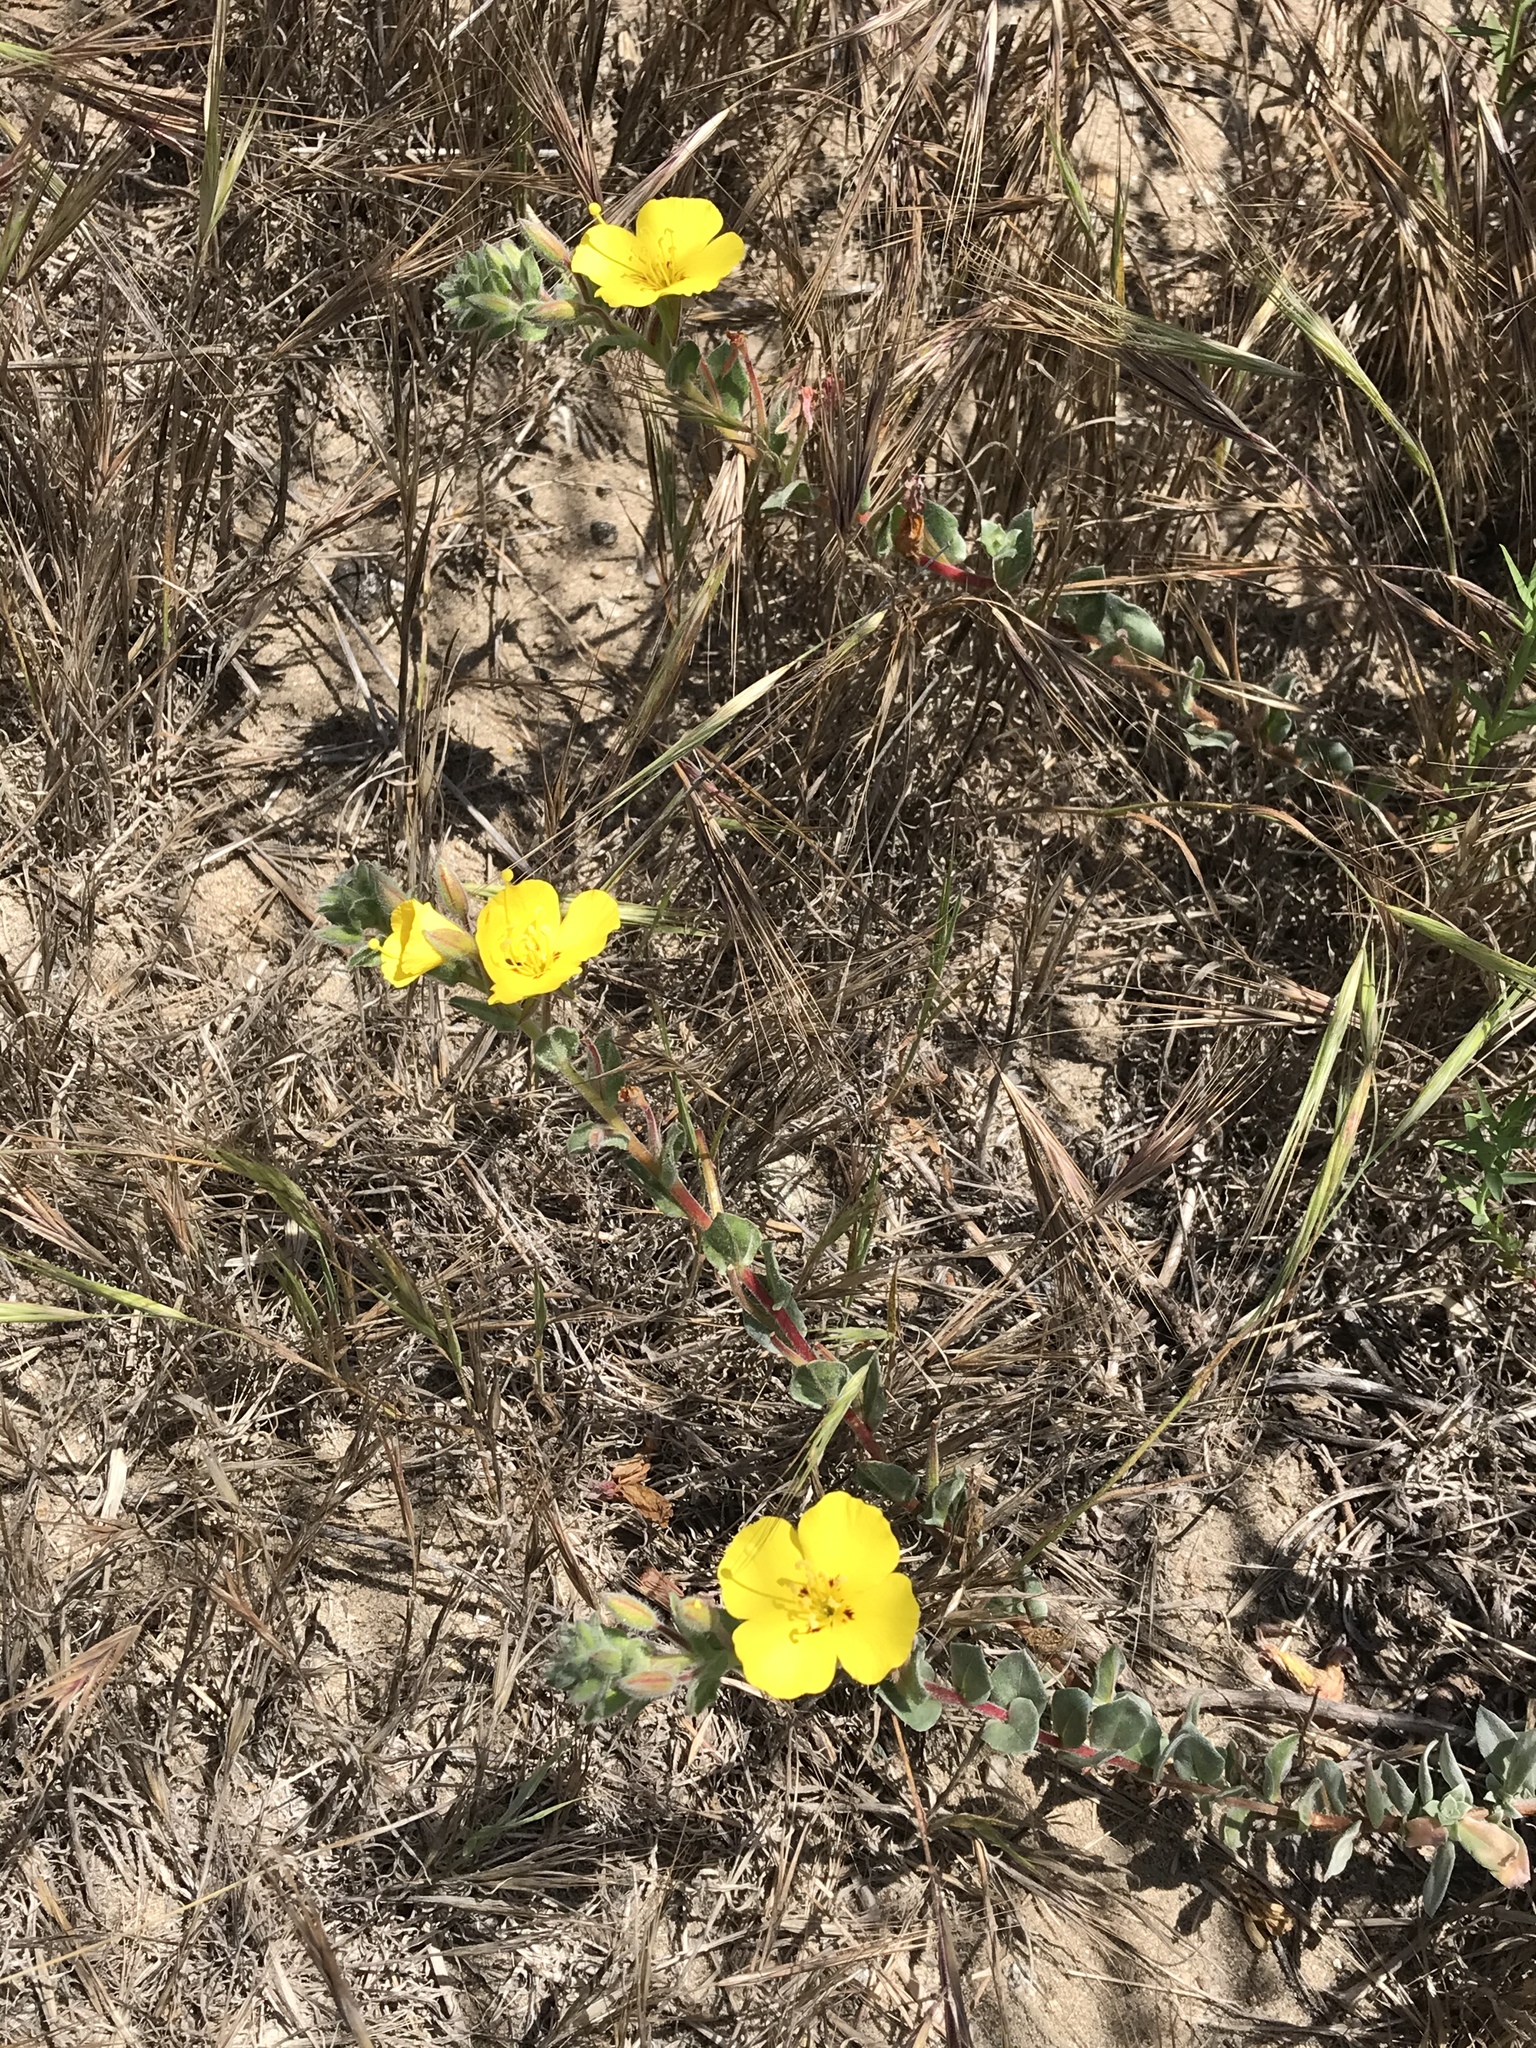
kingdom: Plantae
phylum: Tracheophyta
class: Magnoliopsida
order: Myrtales
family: Onagraceae
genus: Camissoniopsis
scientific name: Camissoniopsis cheiranthifolia
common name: Beach suncup
